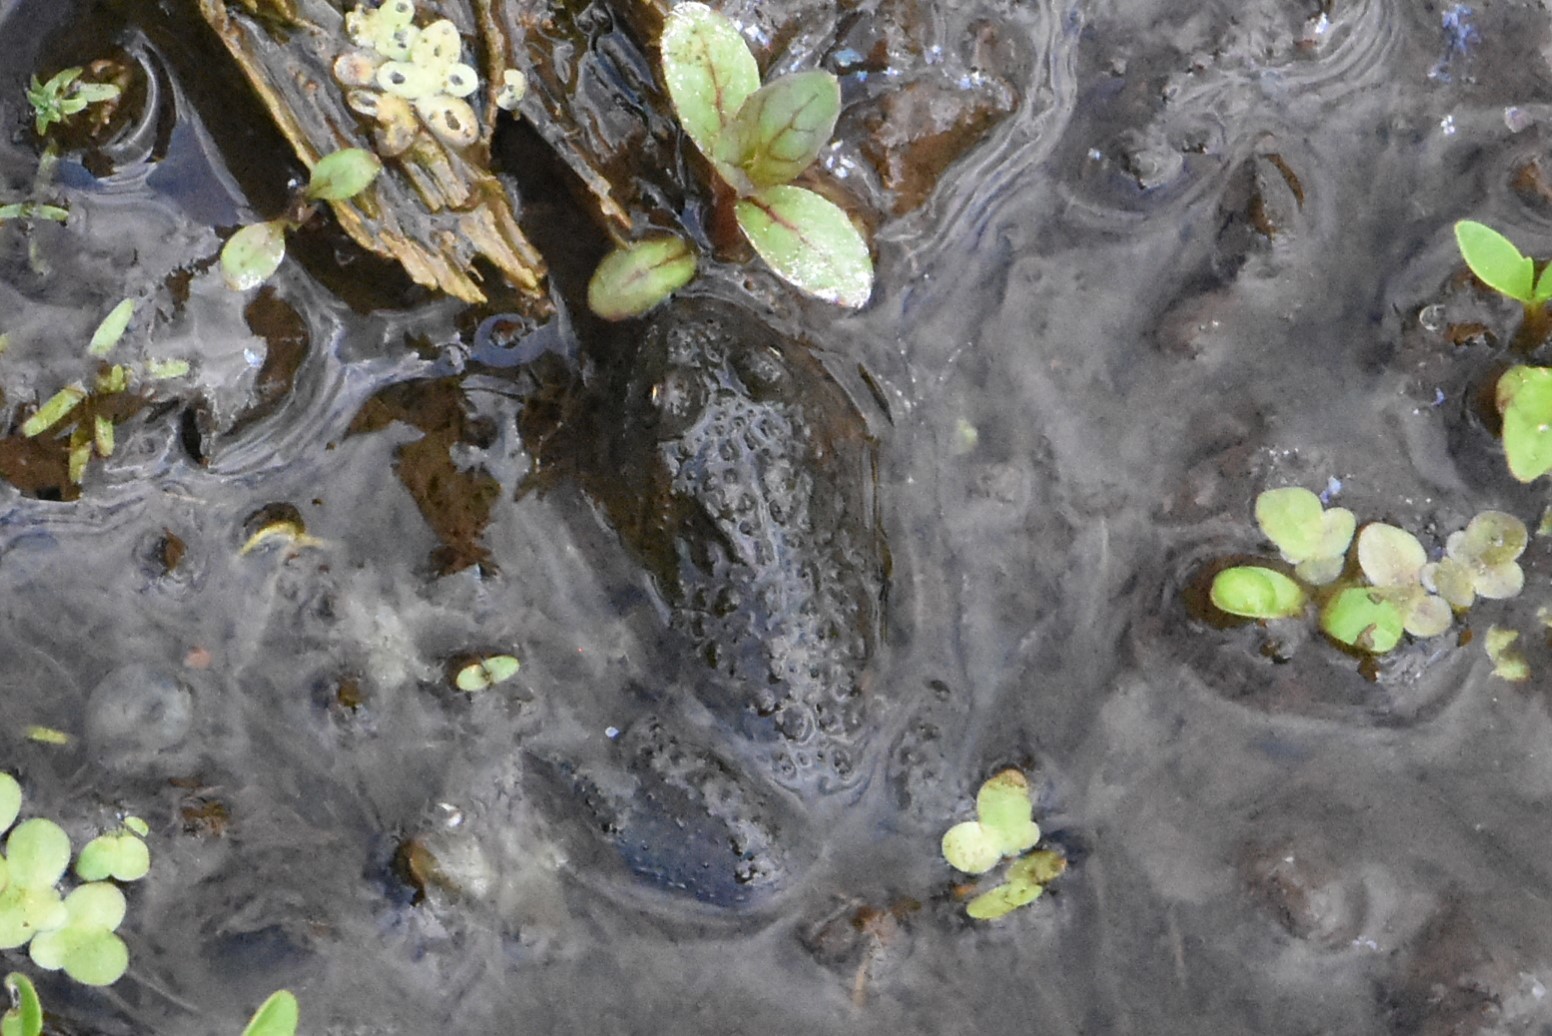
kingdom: Animalia
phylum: Chordata
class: Amphibia
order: Anura
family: Bombinatoridae
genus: Bombina
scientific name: Bombina bombina
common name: Fire-bellied toad
